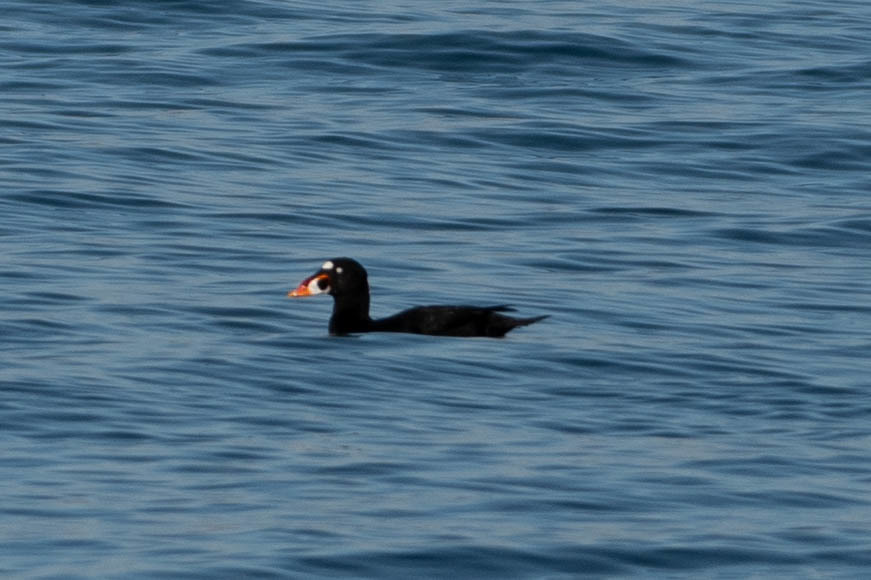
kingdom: Animalia
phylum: Chordata
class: Aves
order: Anseriformes
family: Anatidae
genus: Melanitta
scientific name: Melanitta perspicillata
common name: Surf scoter
